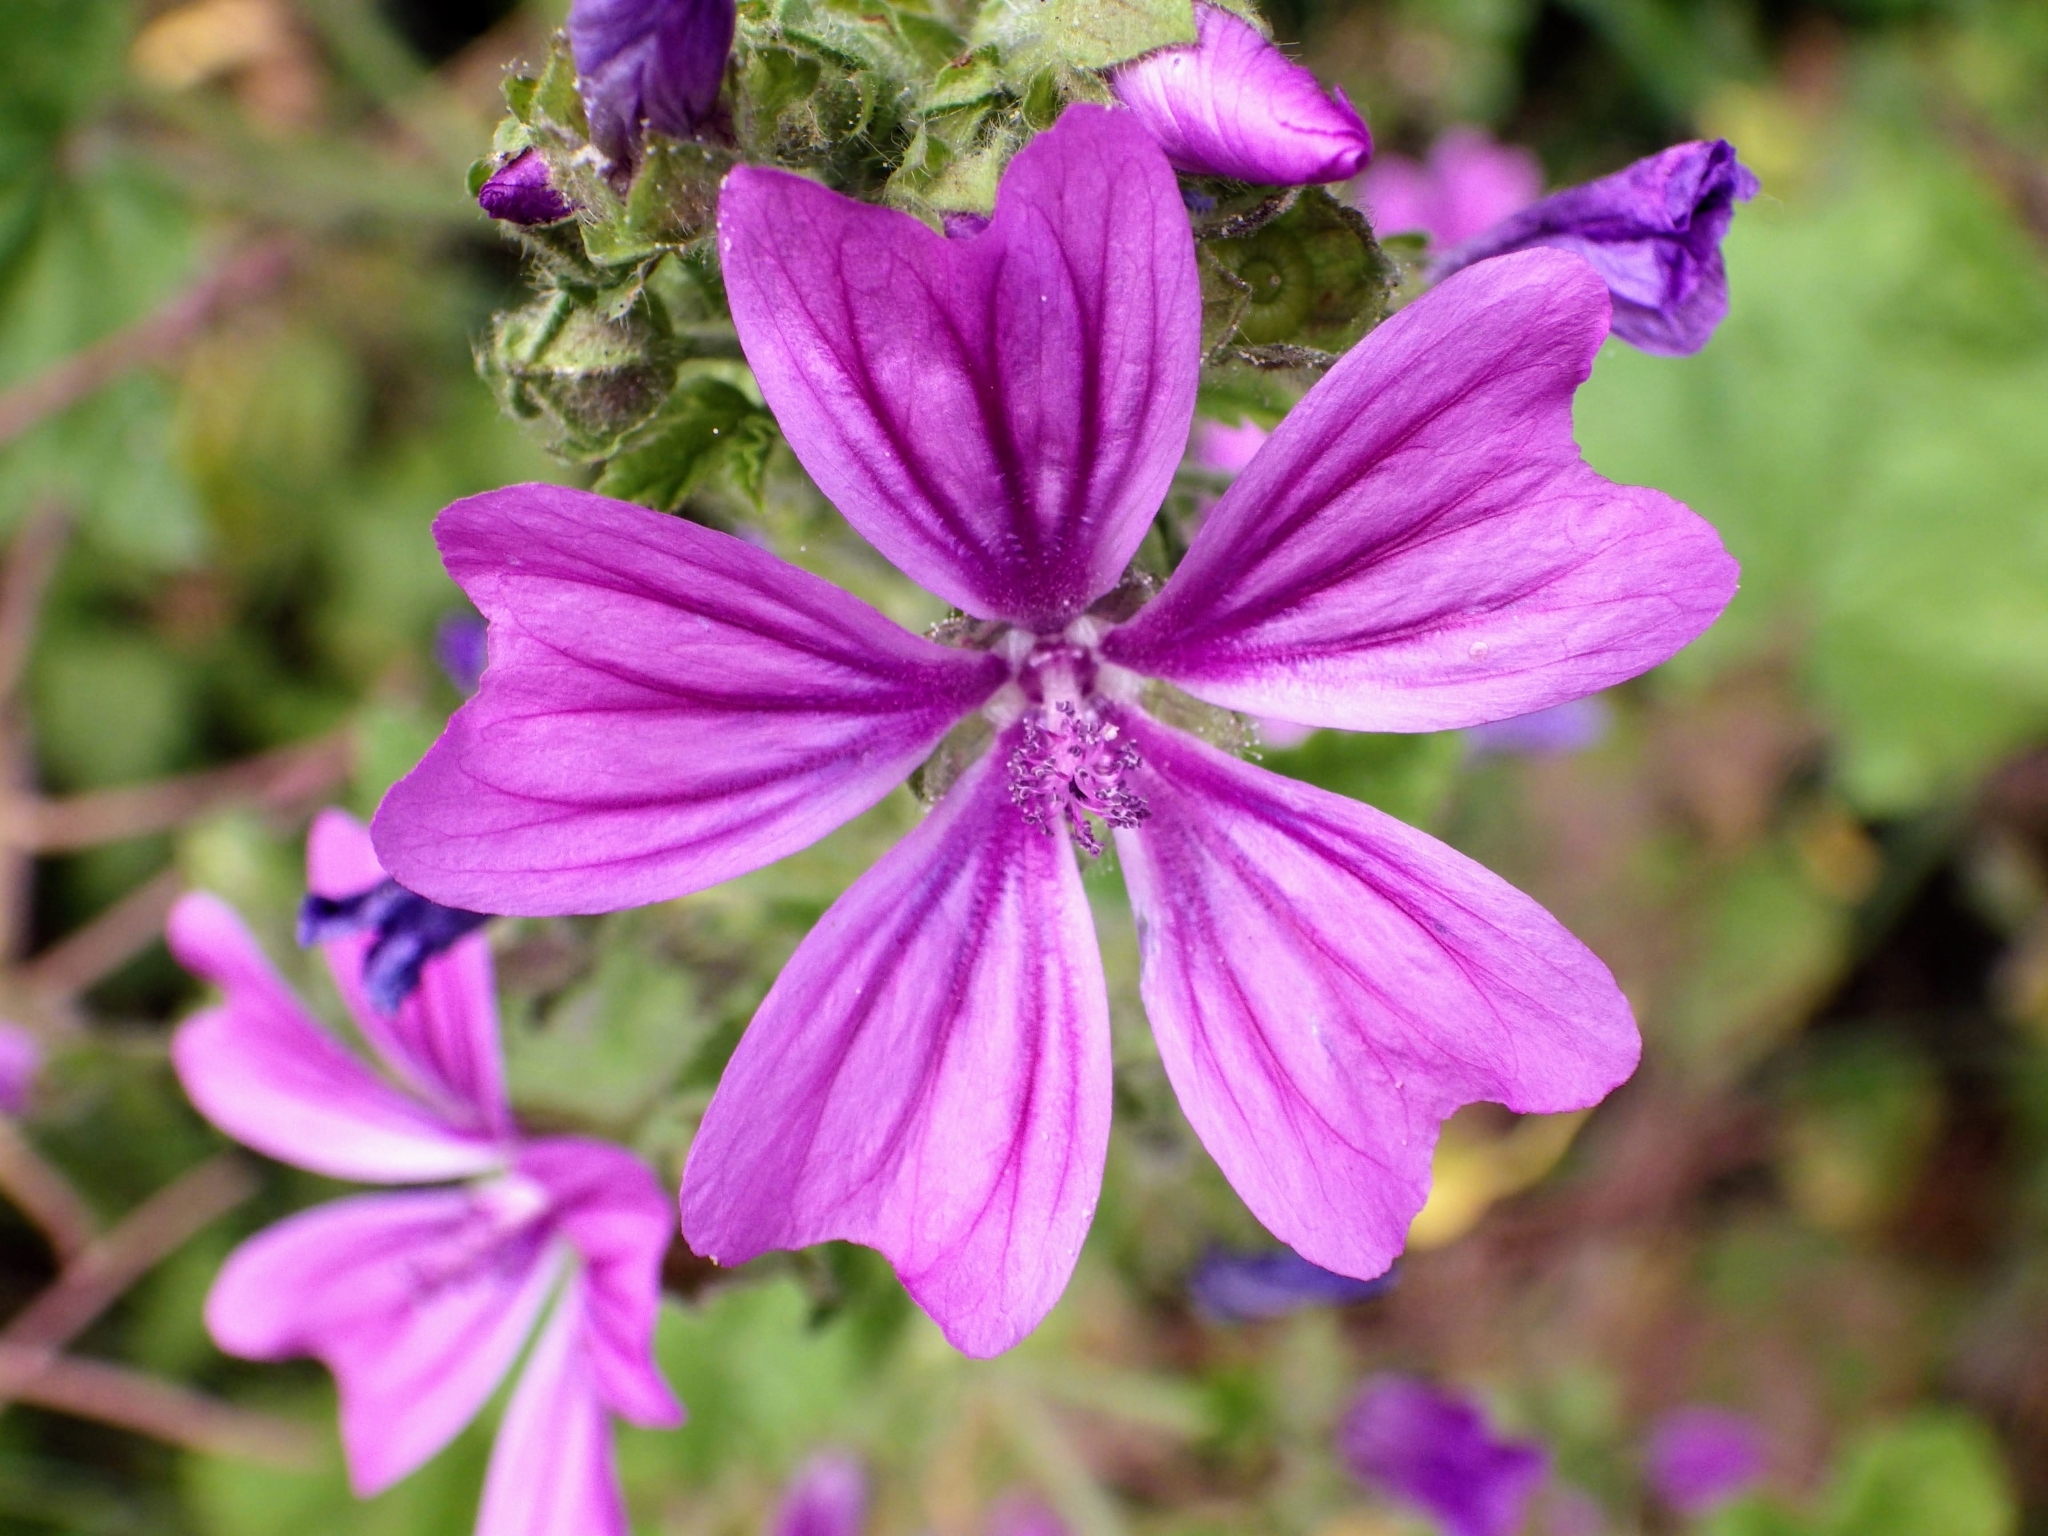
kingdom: Plantae
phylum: Tracheophyta
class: Magnoliopsida
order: Malvales
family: Malvaceae
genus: Malva
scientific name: Malva sylvestris
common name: Common mallow
